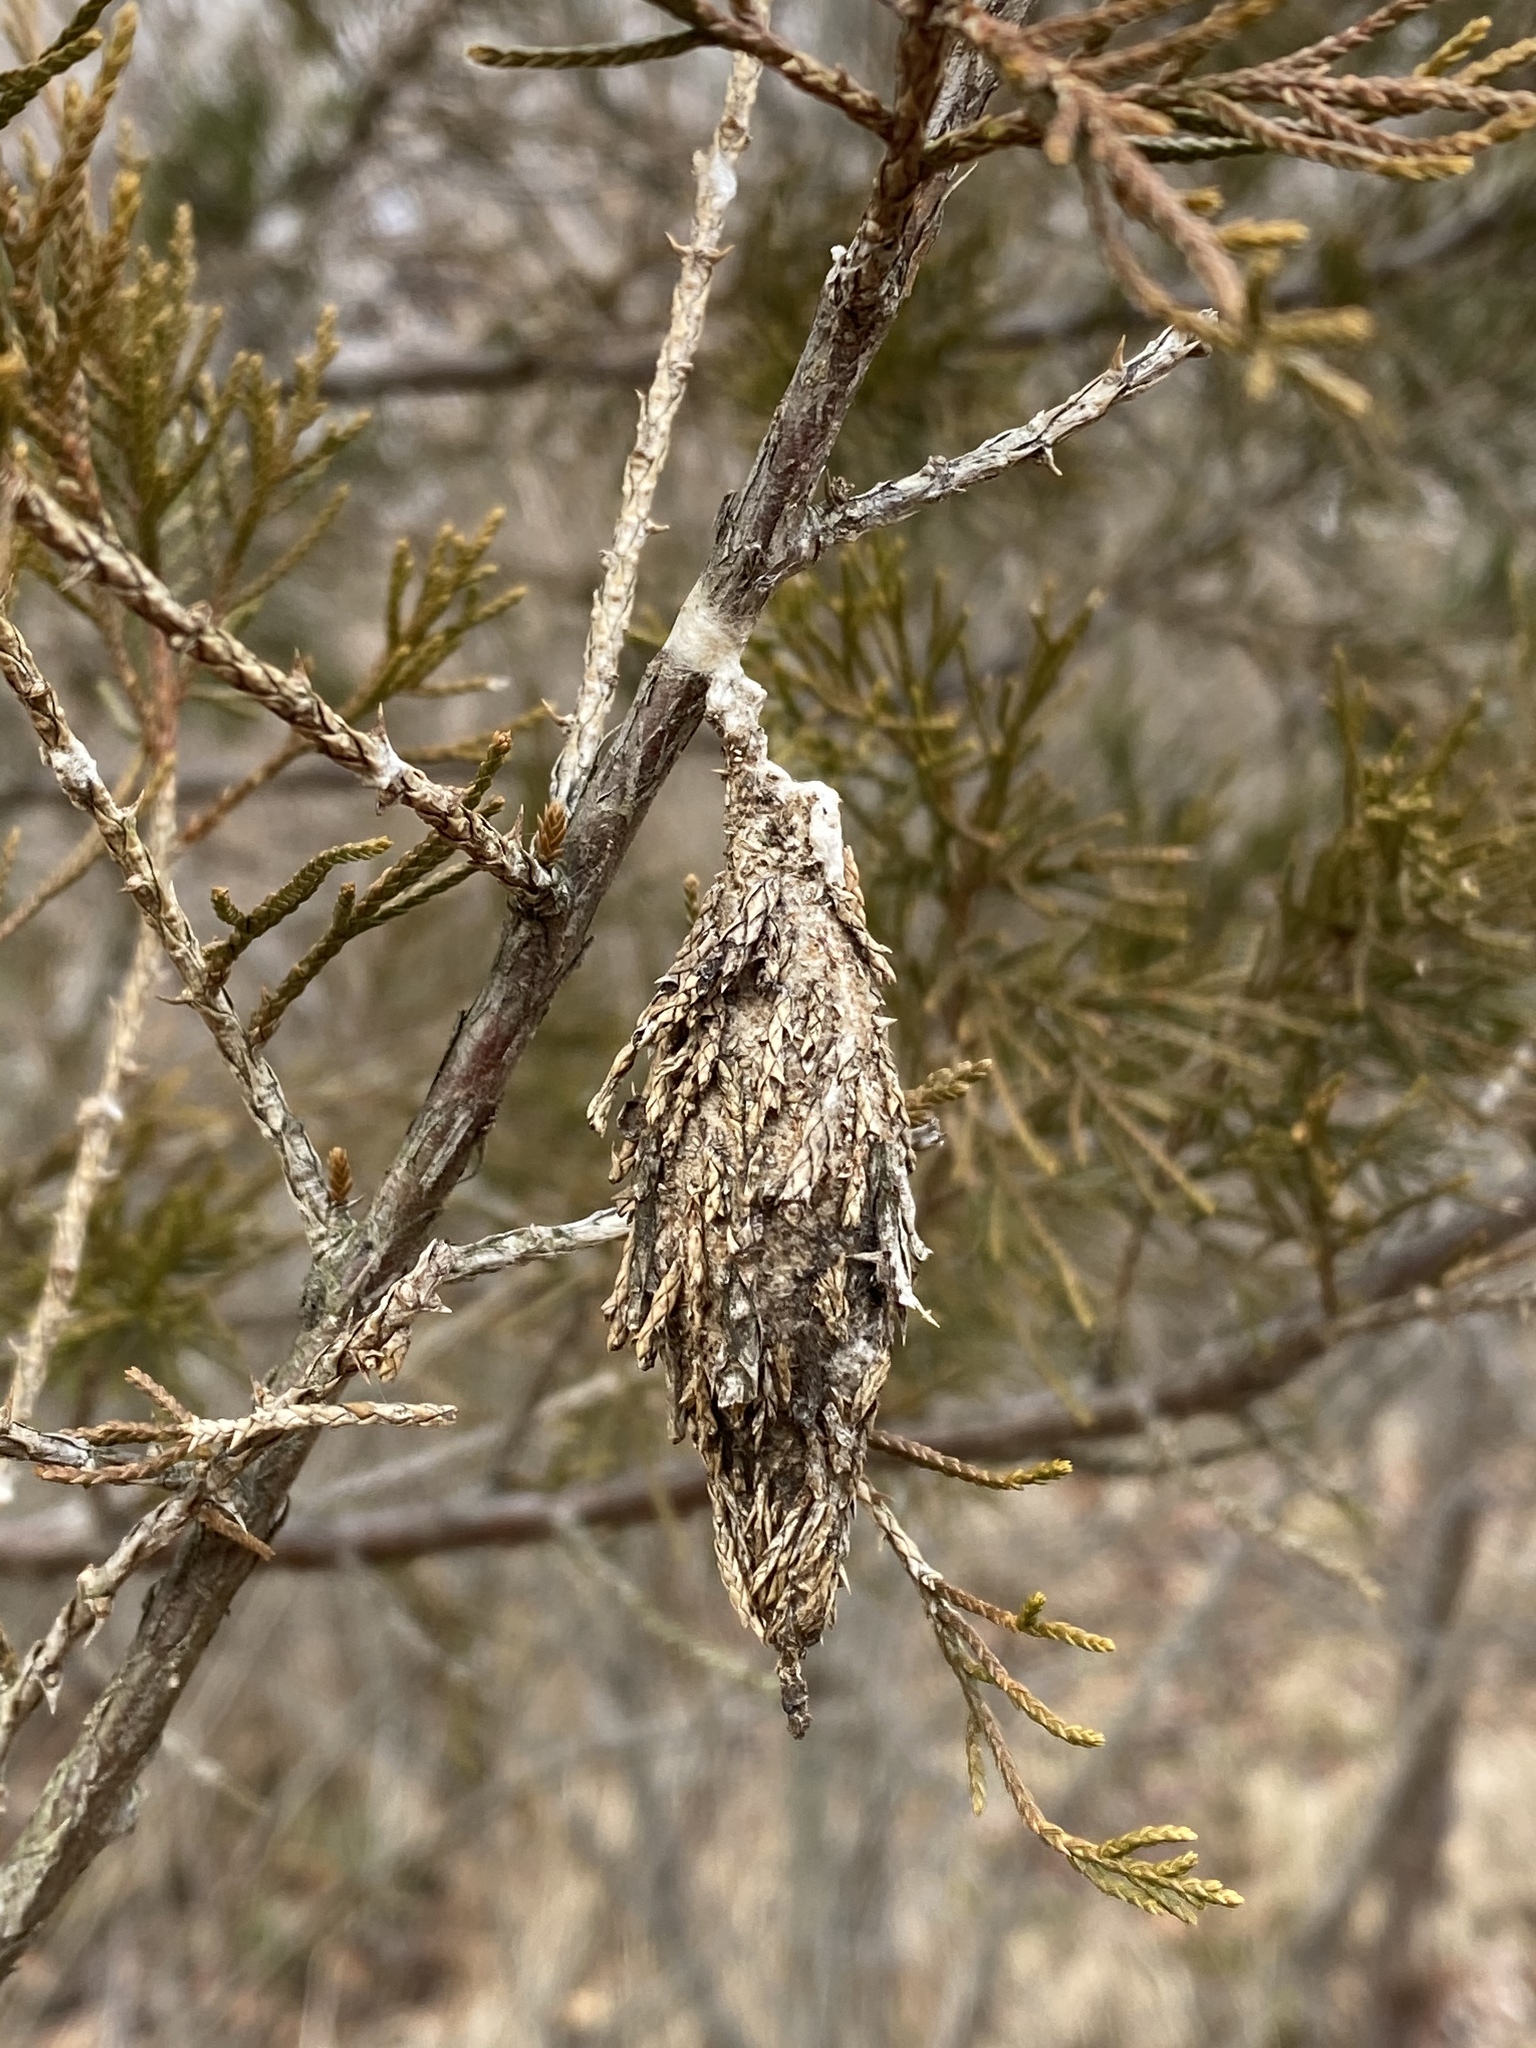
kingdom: Animalia
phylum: Arthropoda
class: Insecta
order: Lepidoptera
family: Psychidae
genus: Thyridopteryx
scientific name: Thyridopteryx ephemeraeformis
